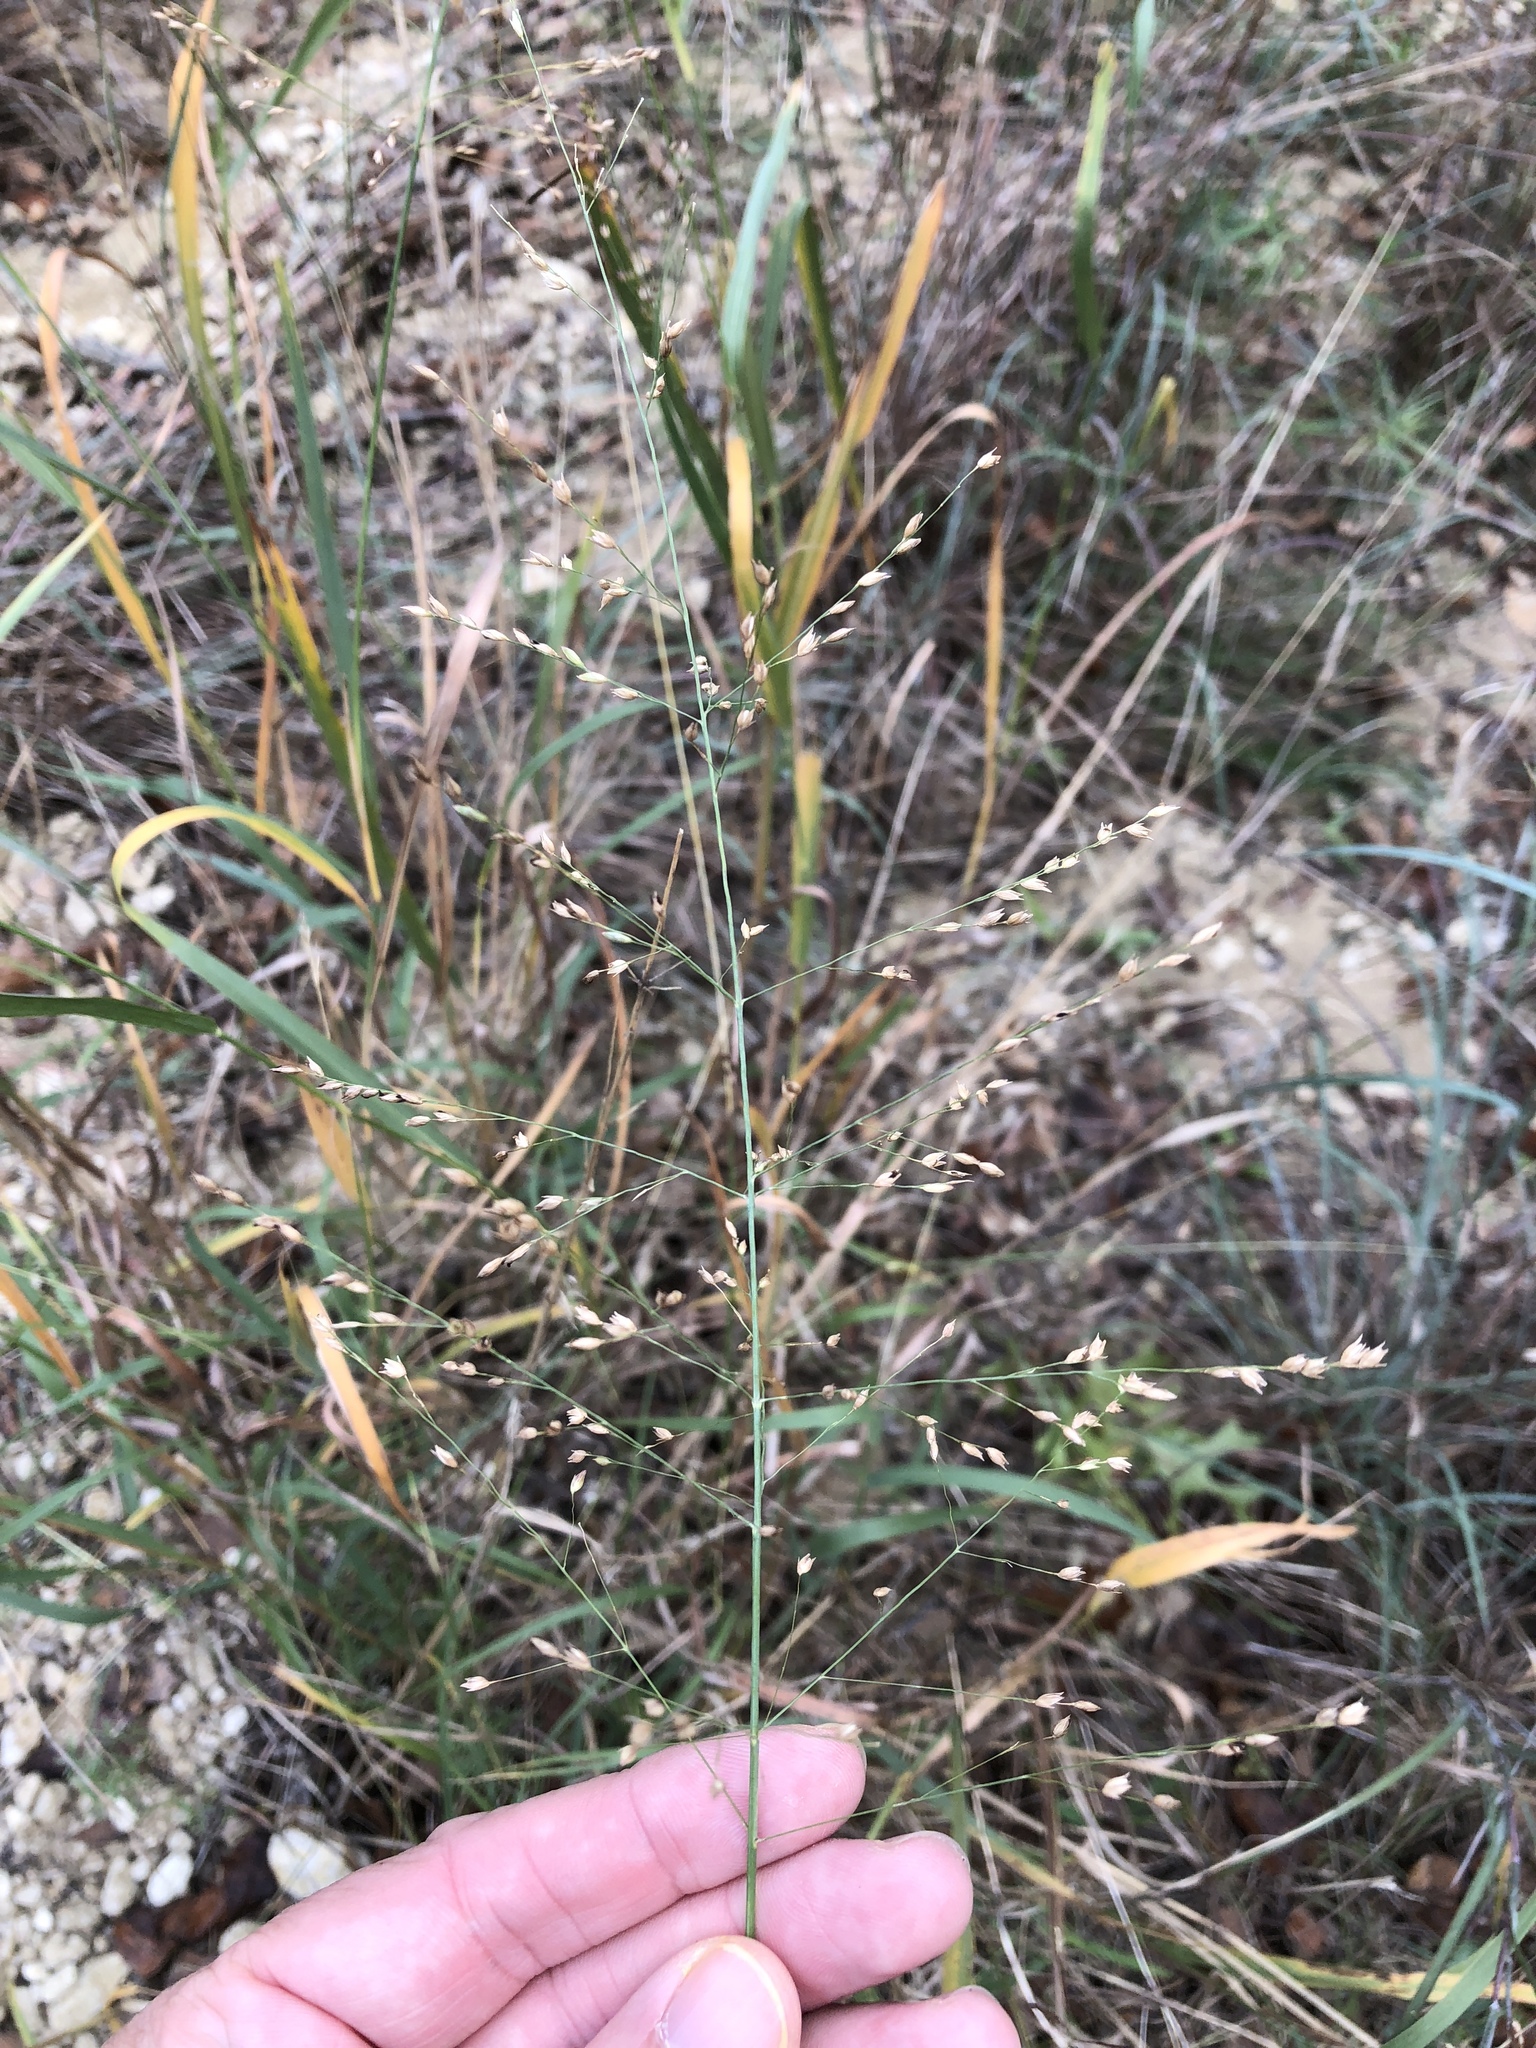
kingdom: Plantae
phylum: Tracheophyta
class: Liliopsida
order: Poales
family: Poaceae
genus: Panicum
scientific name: Panicum virgatum
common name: Switchgrass
